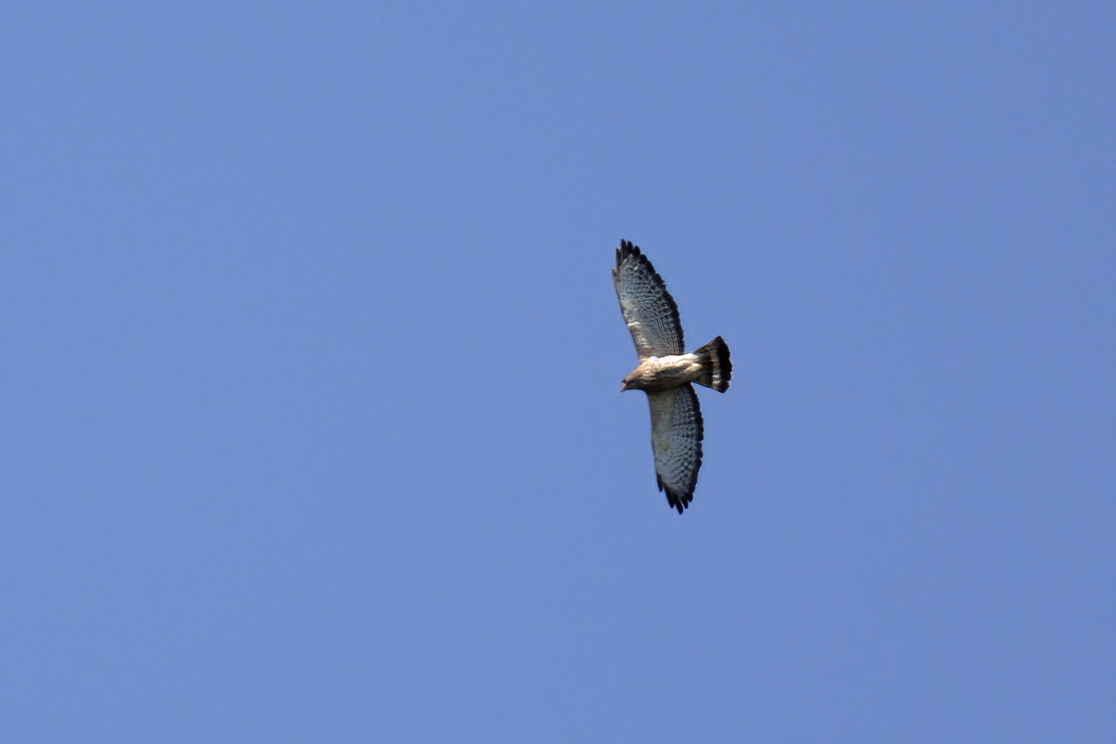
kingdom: Animalia
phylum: Chordata
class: Aves
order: Accipitriformes
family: Accipitridae
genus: Buteo
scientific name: Buteo platypterus
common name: Broad-winged hawk
